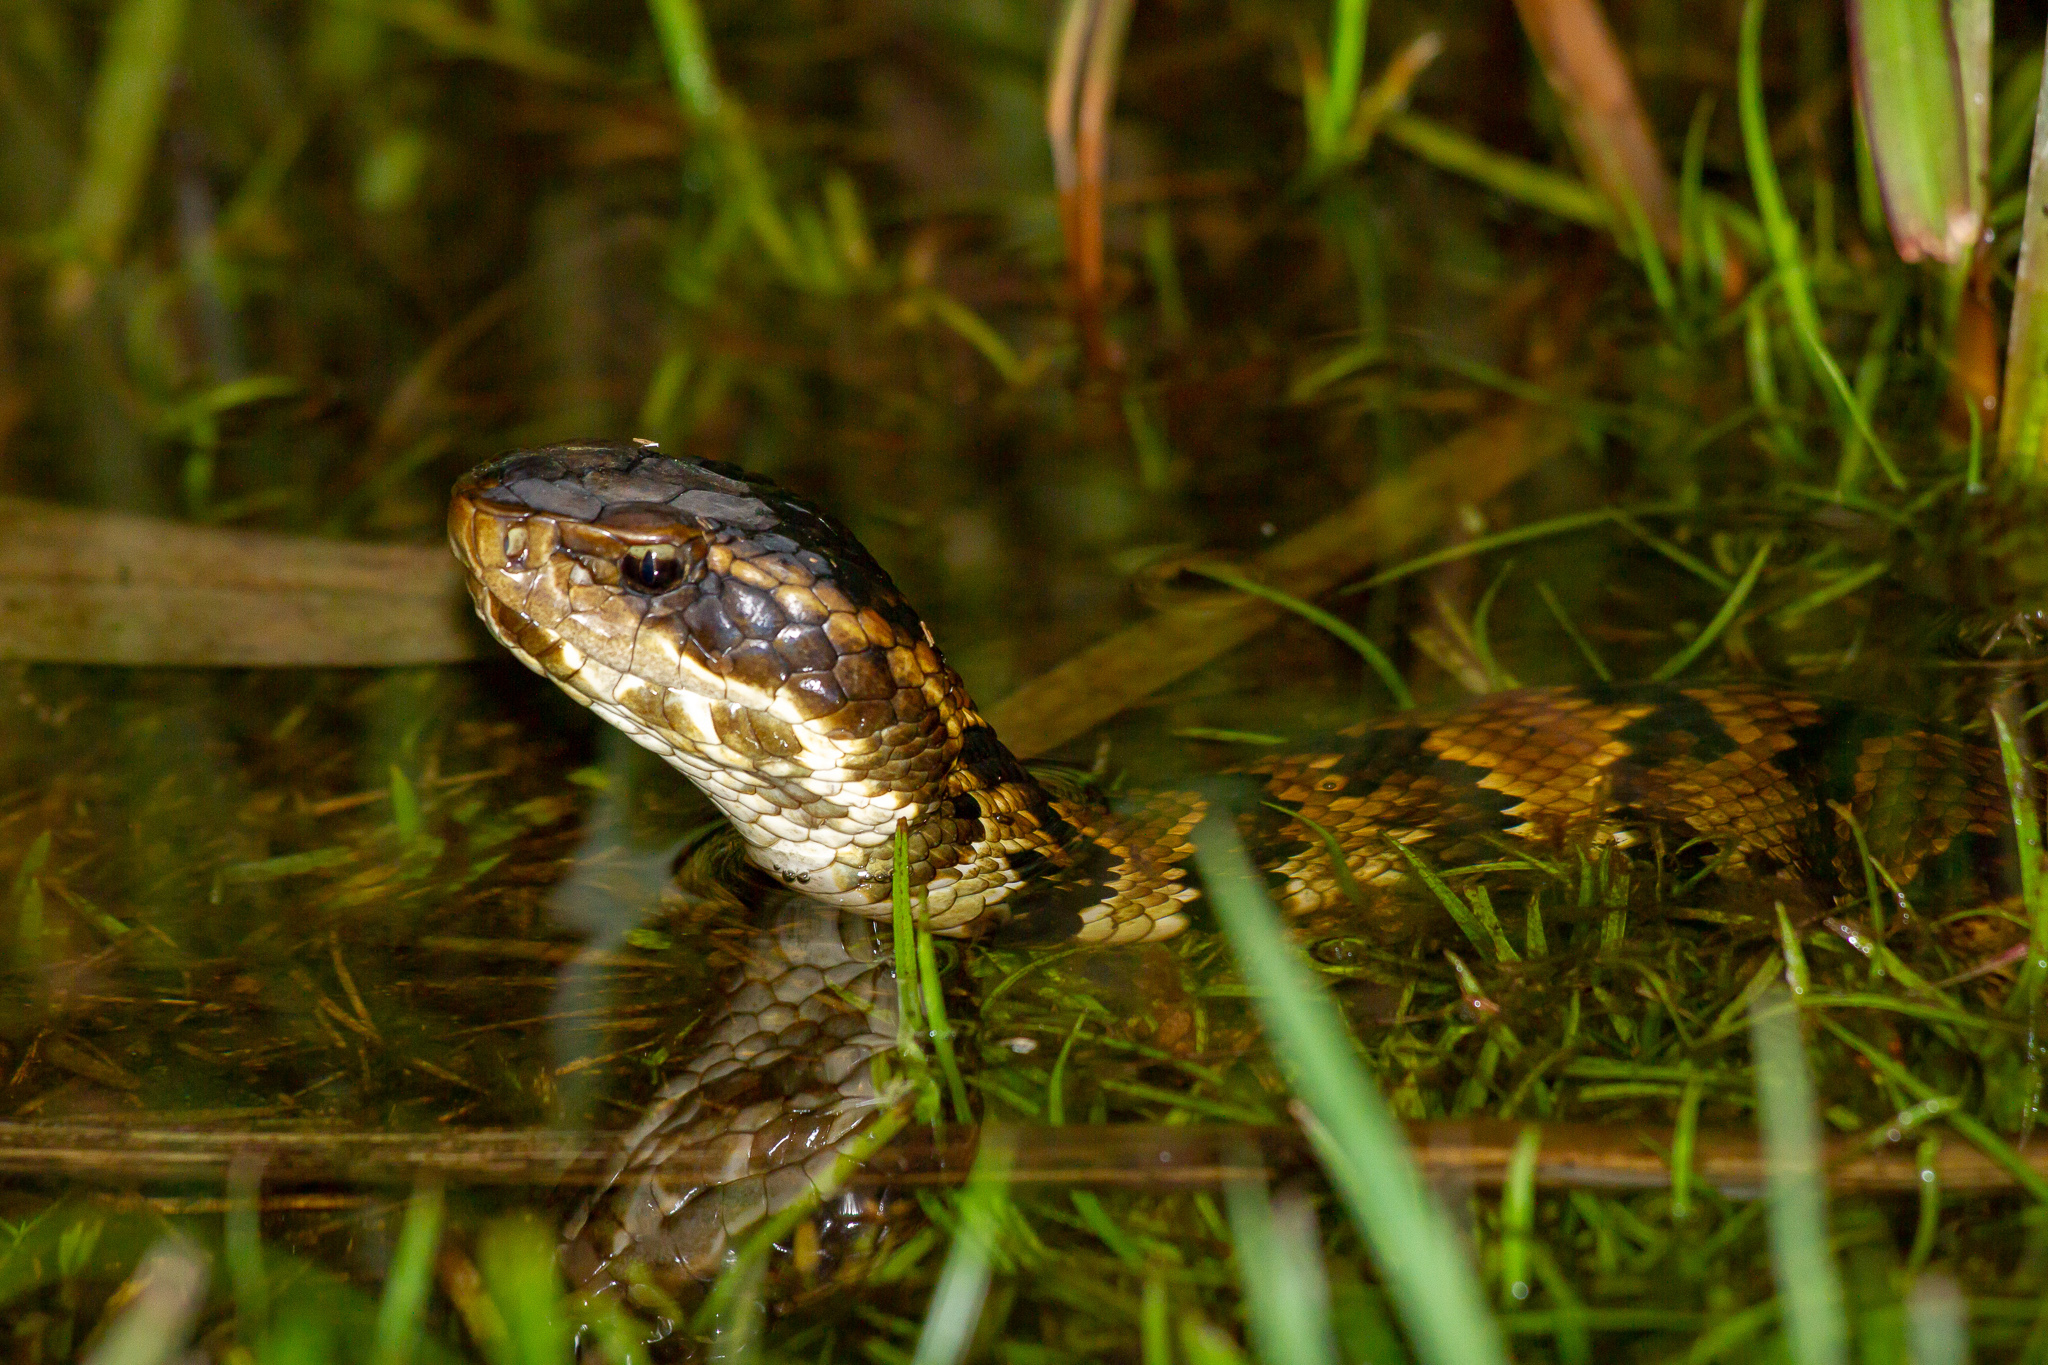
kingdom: Animalia
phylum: Chordata
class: Squamata
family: Viperidae
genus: Agkistrodon
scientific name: Agkistrodon piscivorus
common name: Cottonmouth
